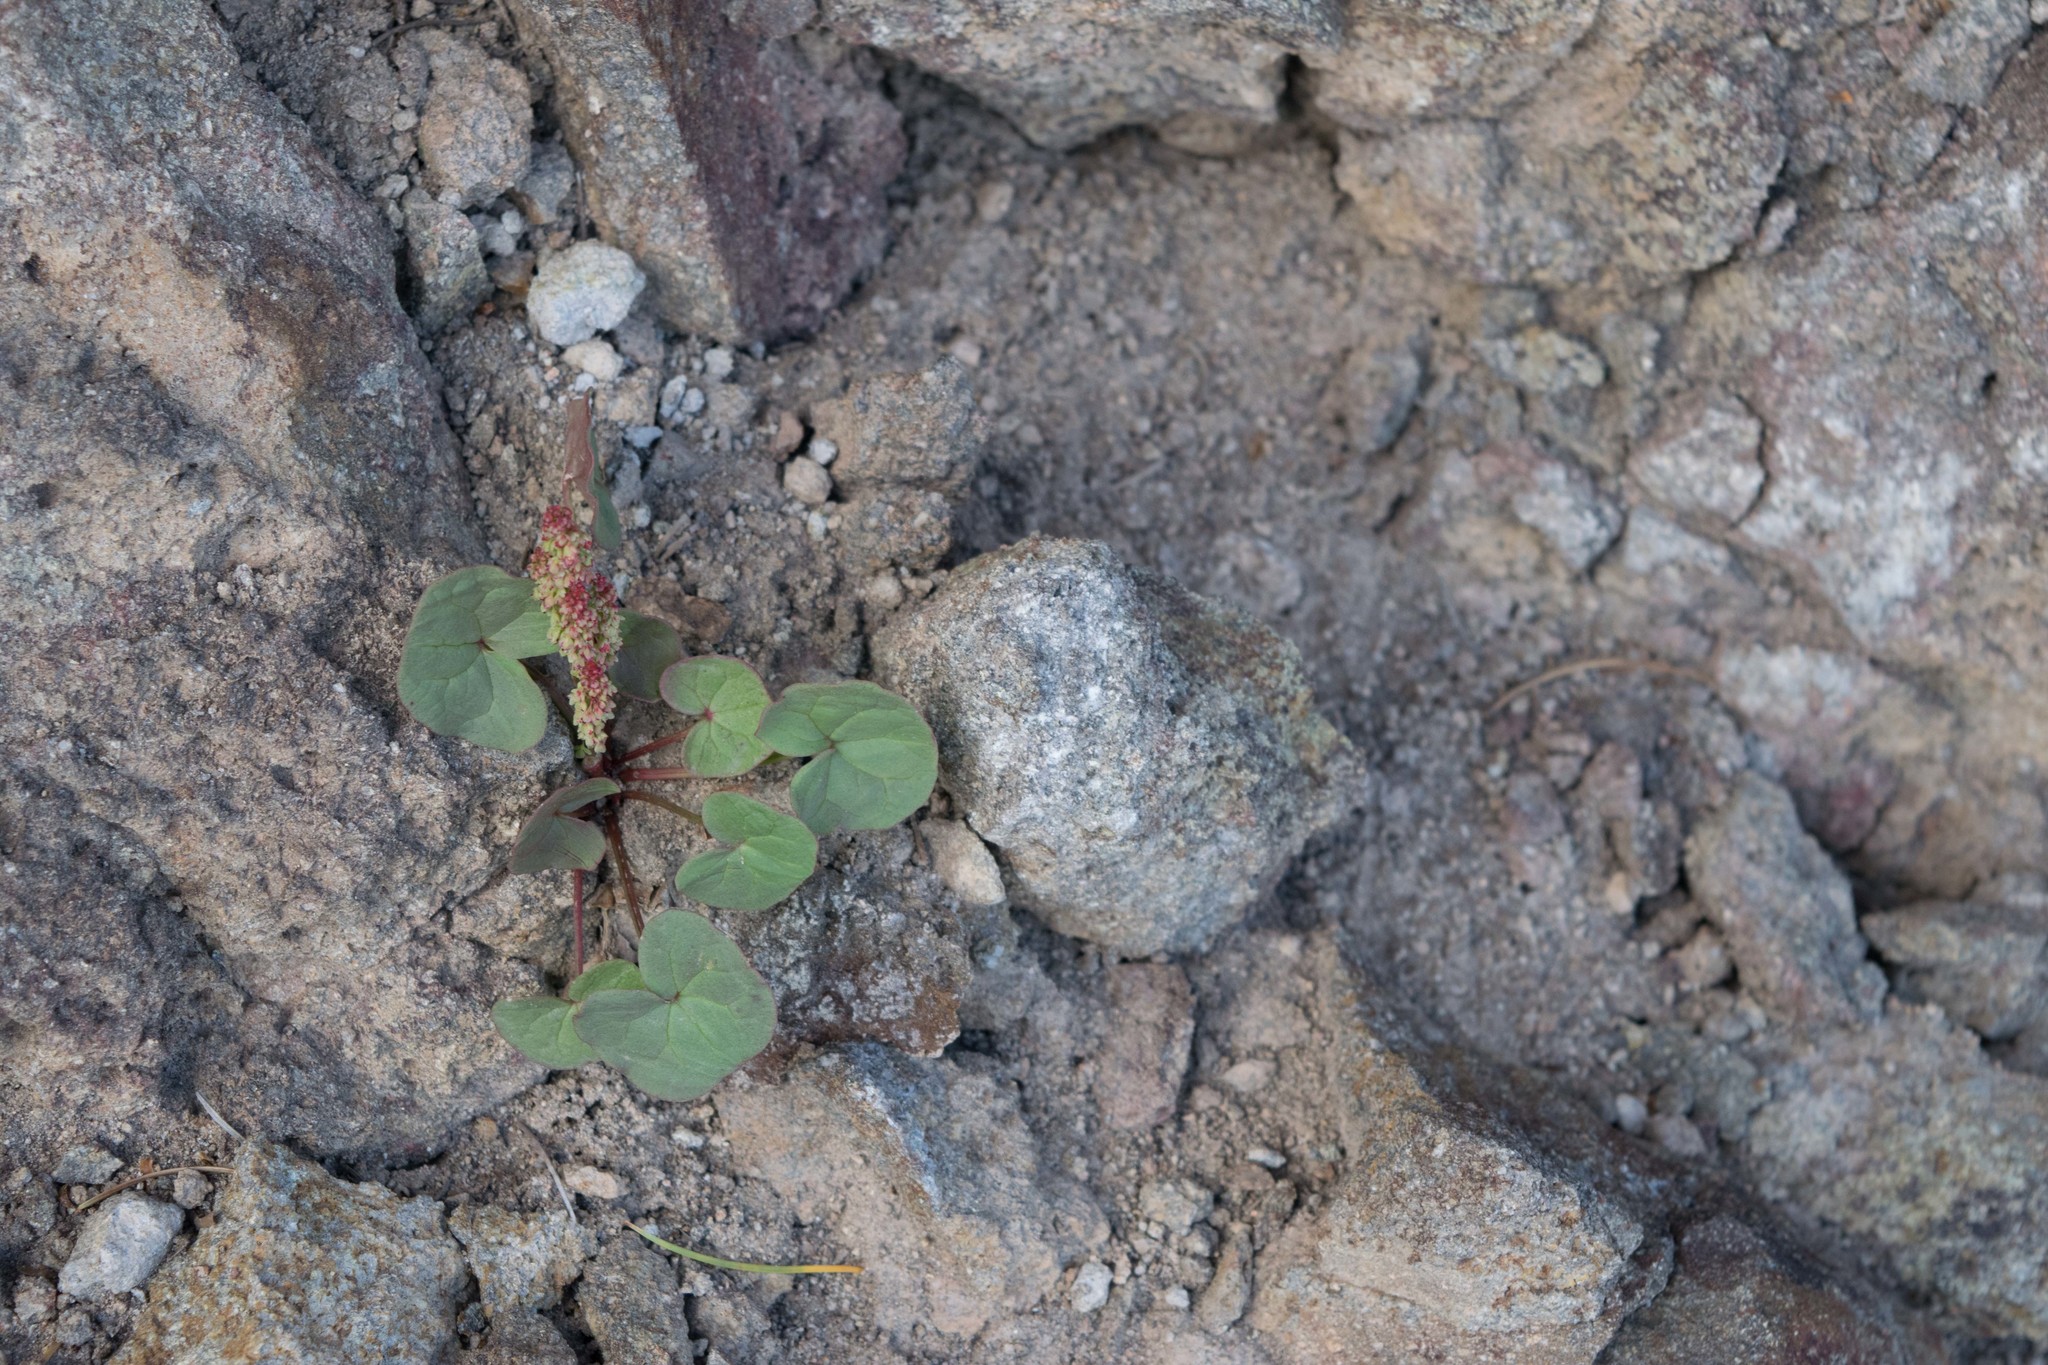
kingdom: Plantae
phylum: Tracheophyta
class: Magnoliopsida
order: Caryophyllales
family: Polygonaceae
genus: Oxyria
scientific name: Oxyria digyna
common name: Alpine mountain-sorrel
